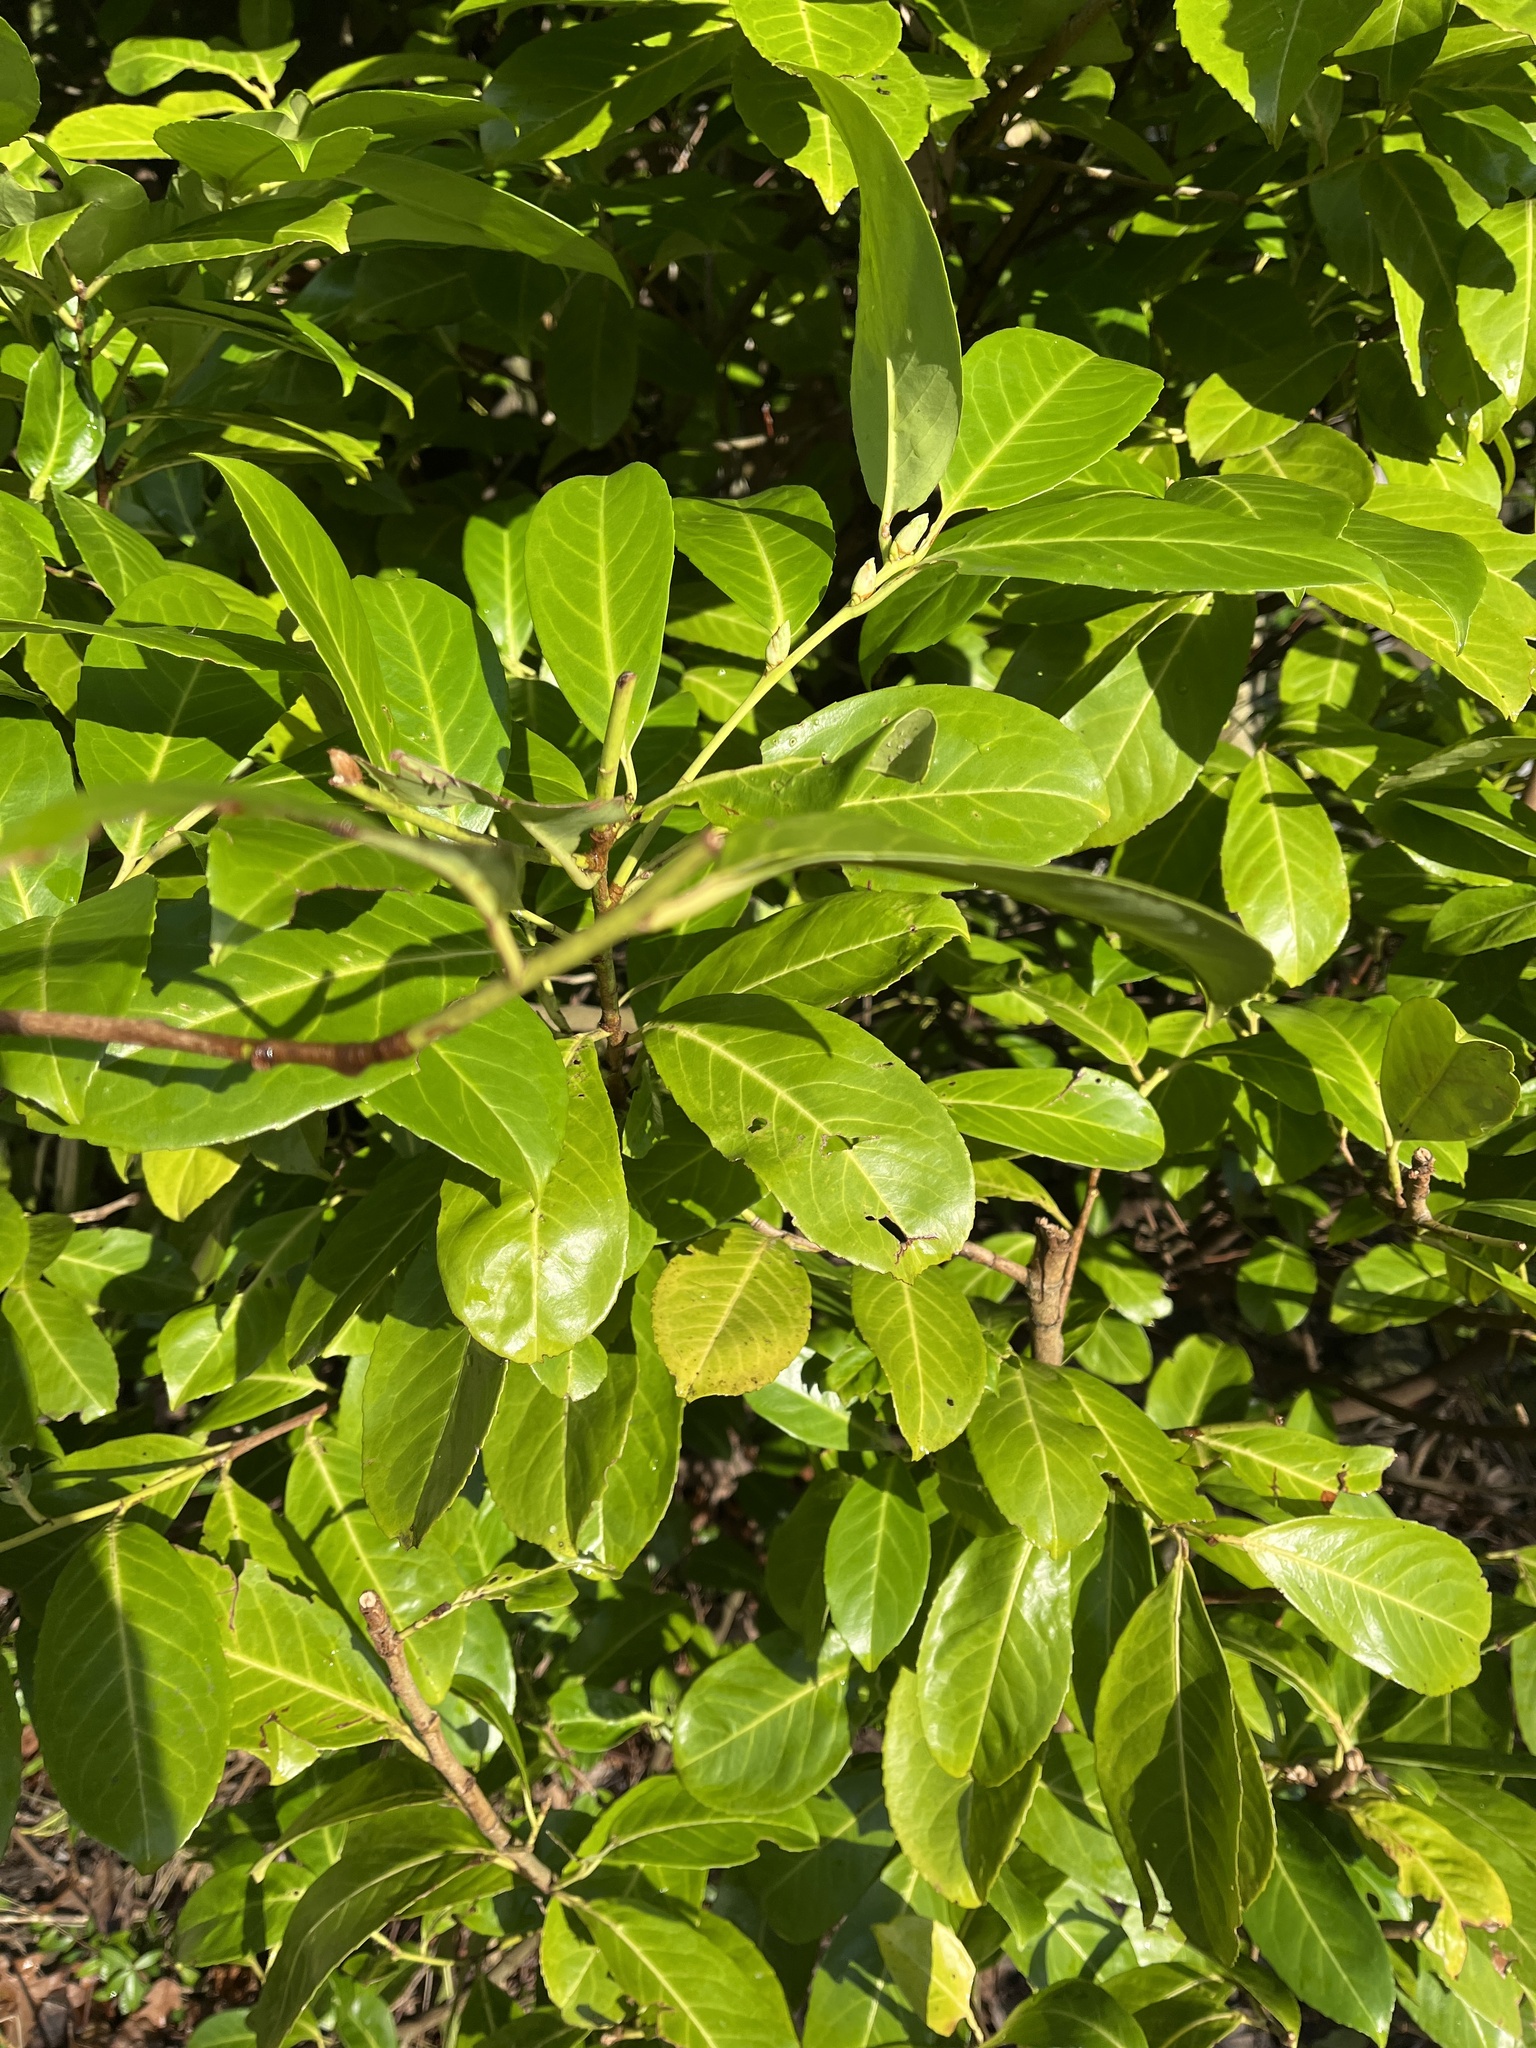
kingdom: Plantae
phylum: Tracheophyta
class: Magnoliopsida
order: Rosales
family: Rosaceae
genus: Prunus
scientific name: Prunus laurocerasus
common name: Cherry laurel
